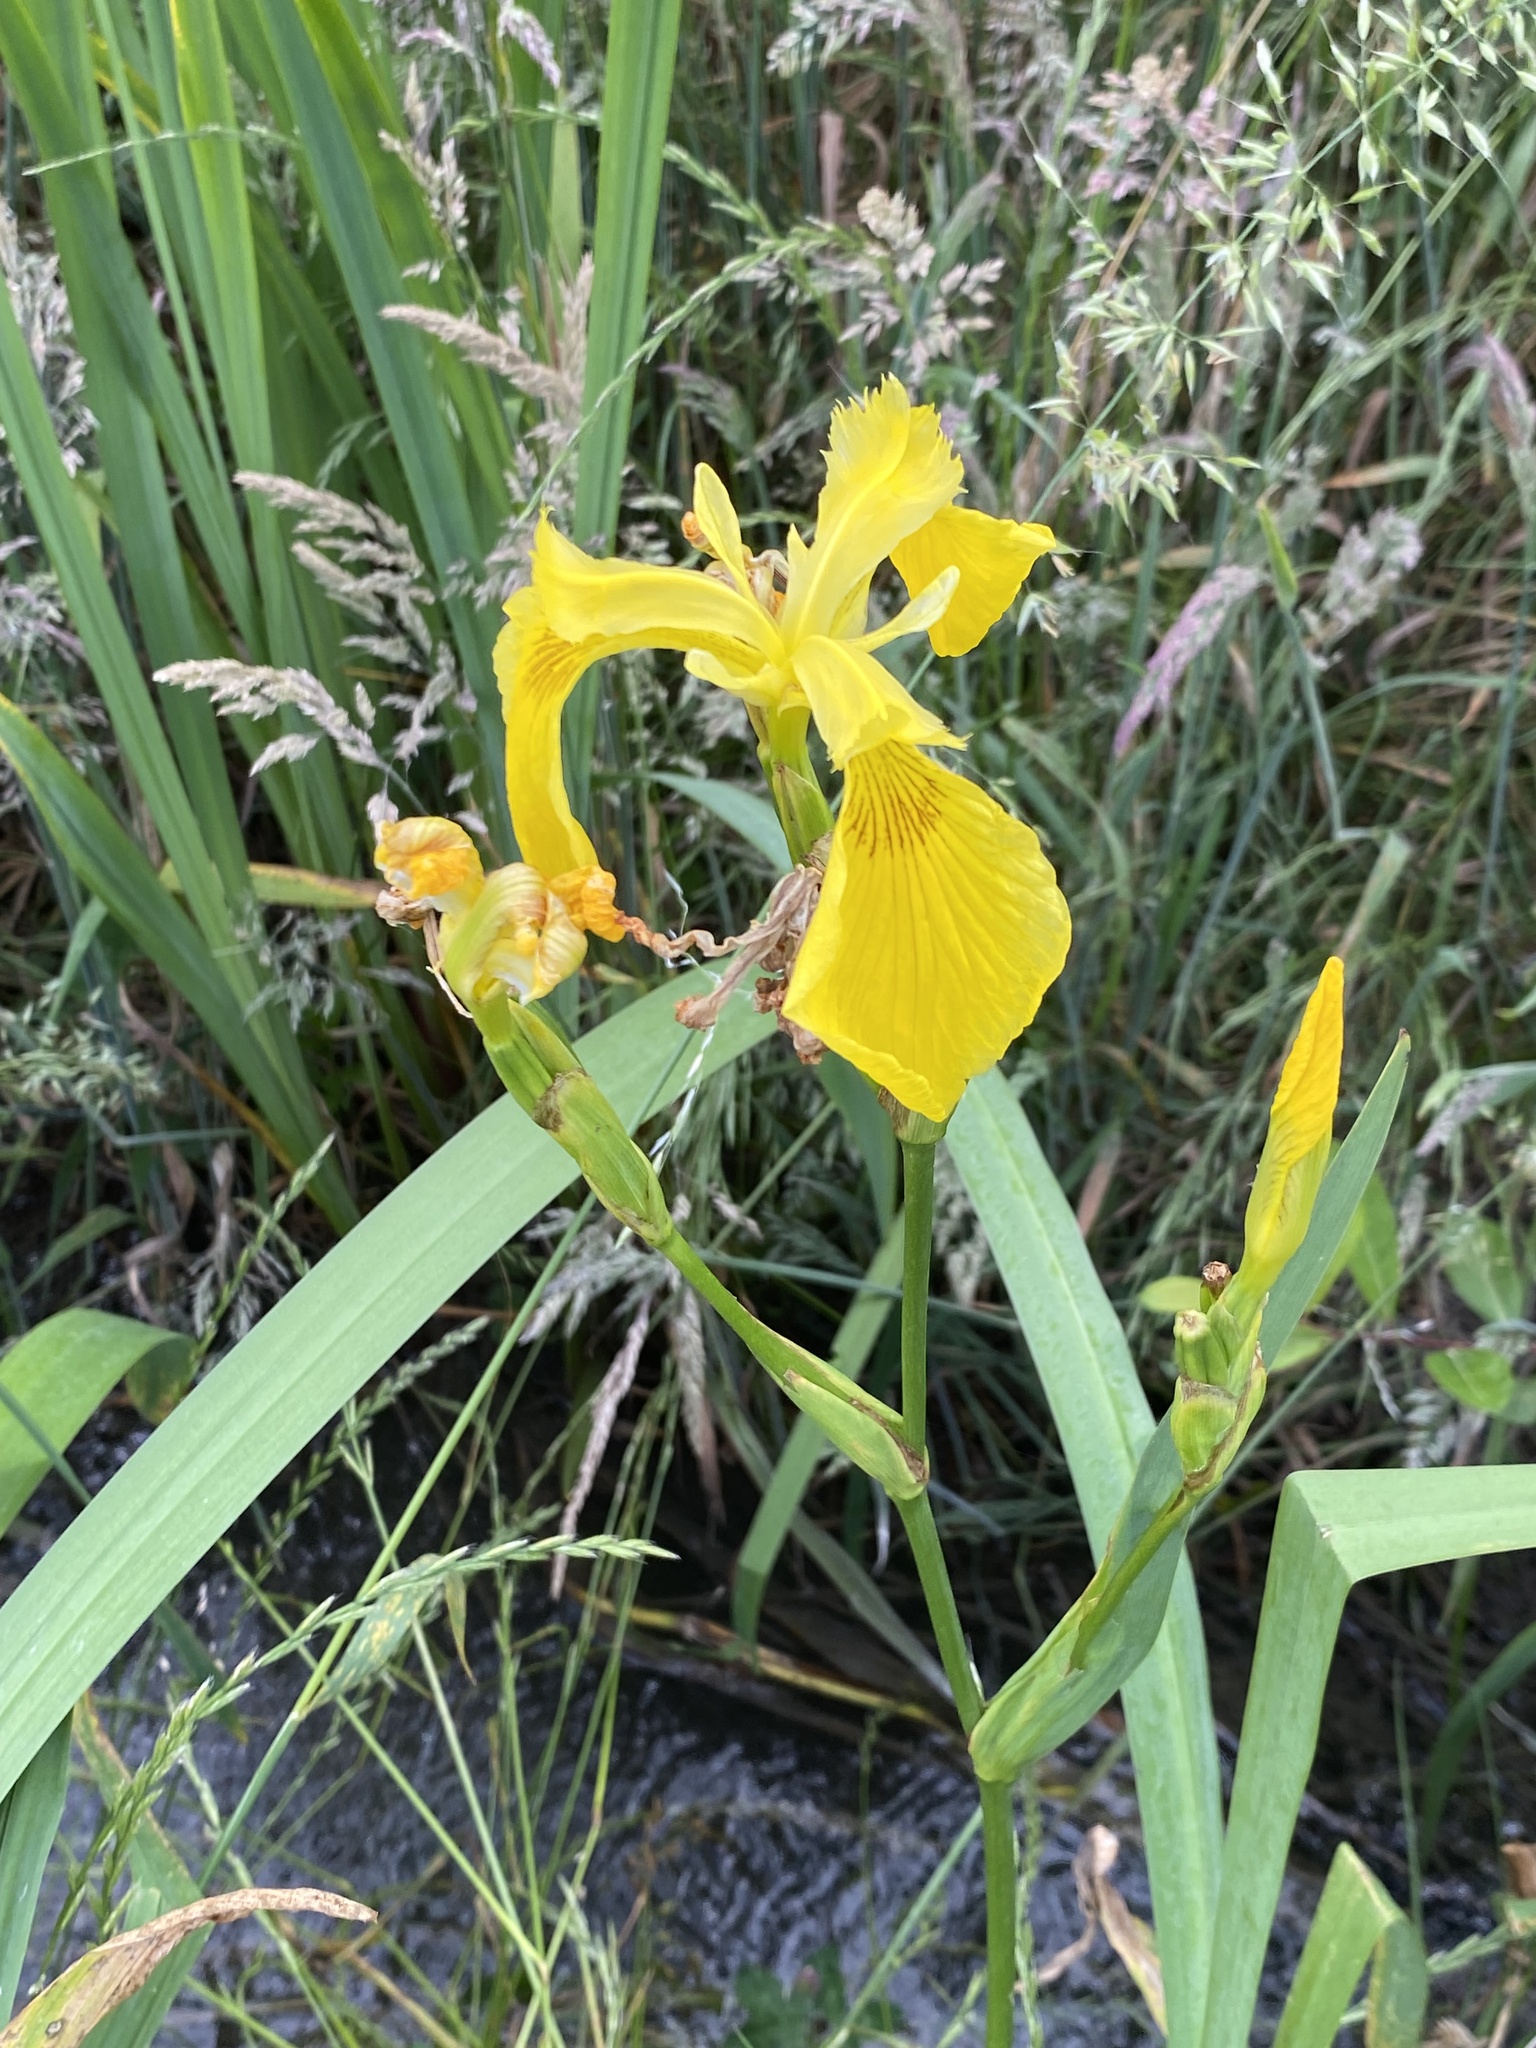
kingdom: Plantae
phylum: Tracheophyta
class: Liliopsida
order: Asparagales
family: Iridaceae
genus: Iris
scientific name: Iris pseudacorus
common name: Yellow flag
